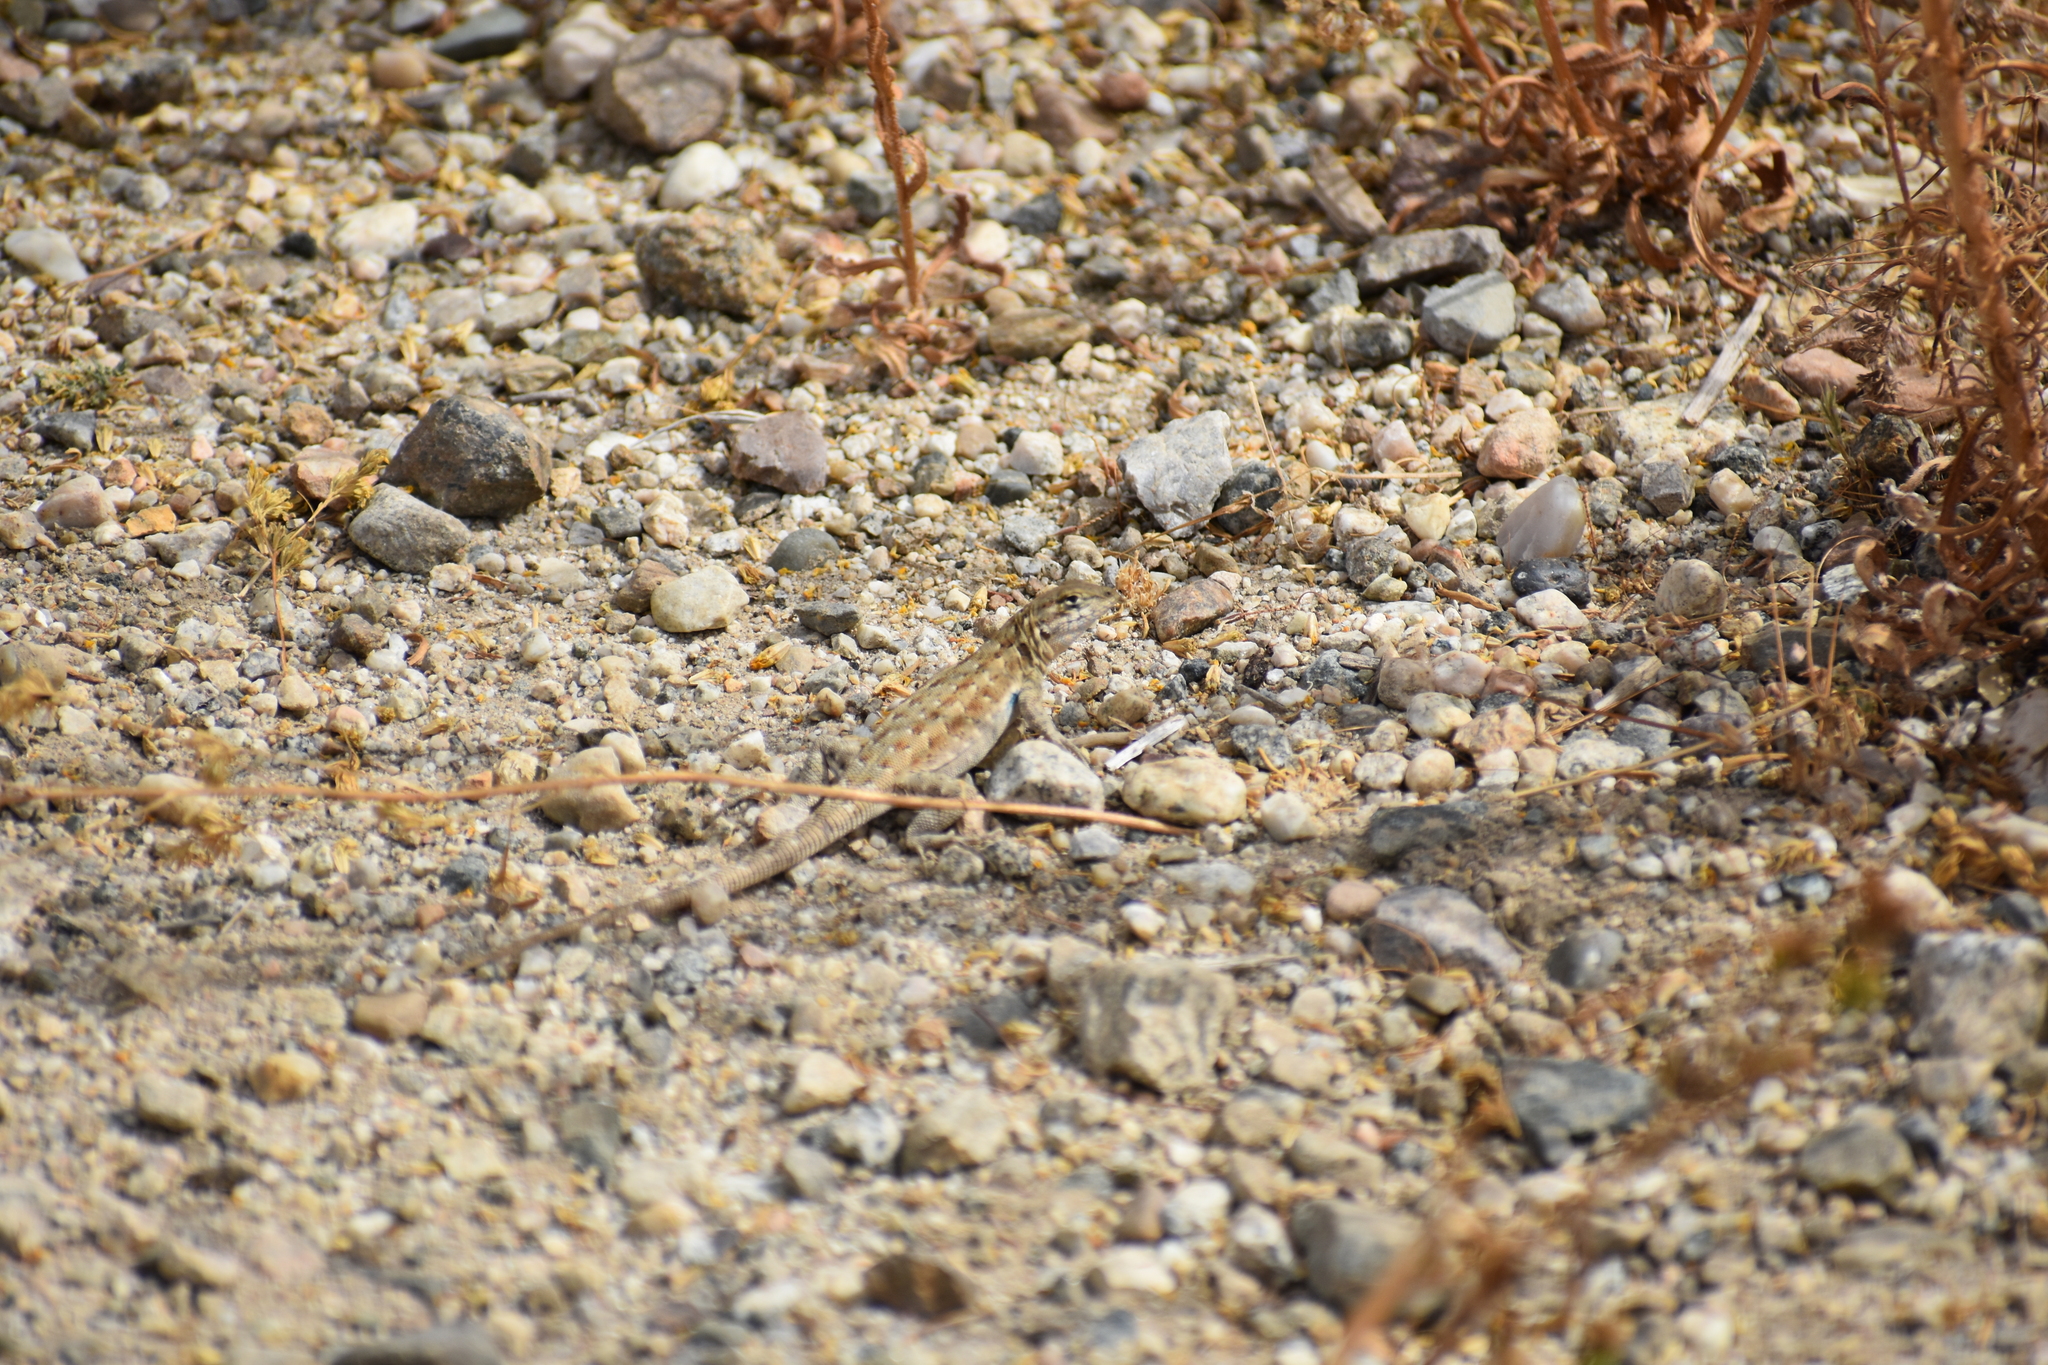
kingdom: Animalia
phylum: Chordata
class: Squamata
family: Phrynosomatidae
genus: Uta
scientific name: Uta stansburiana
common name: Side-blotched lizard
